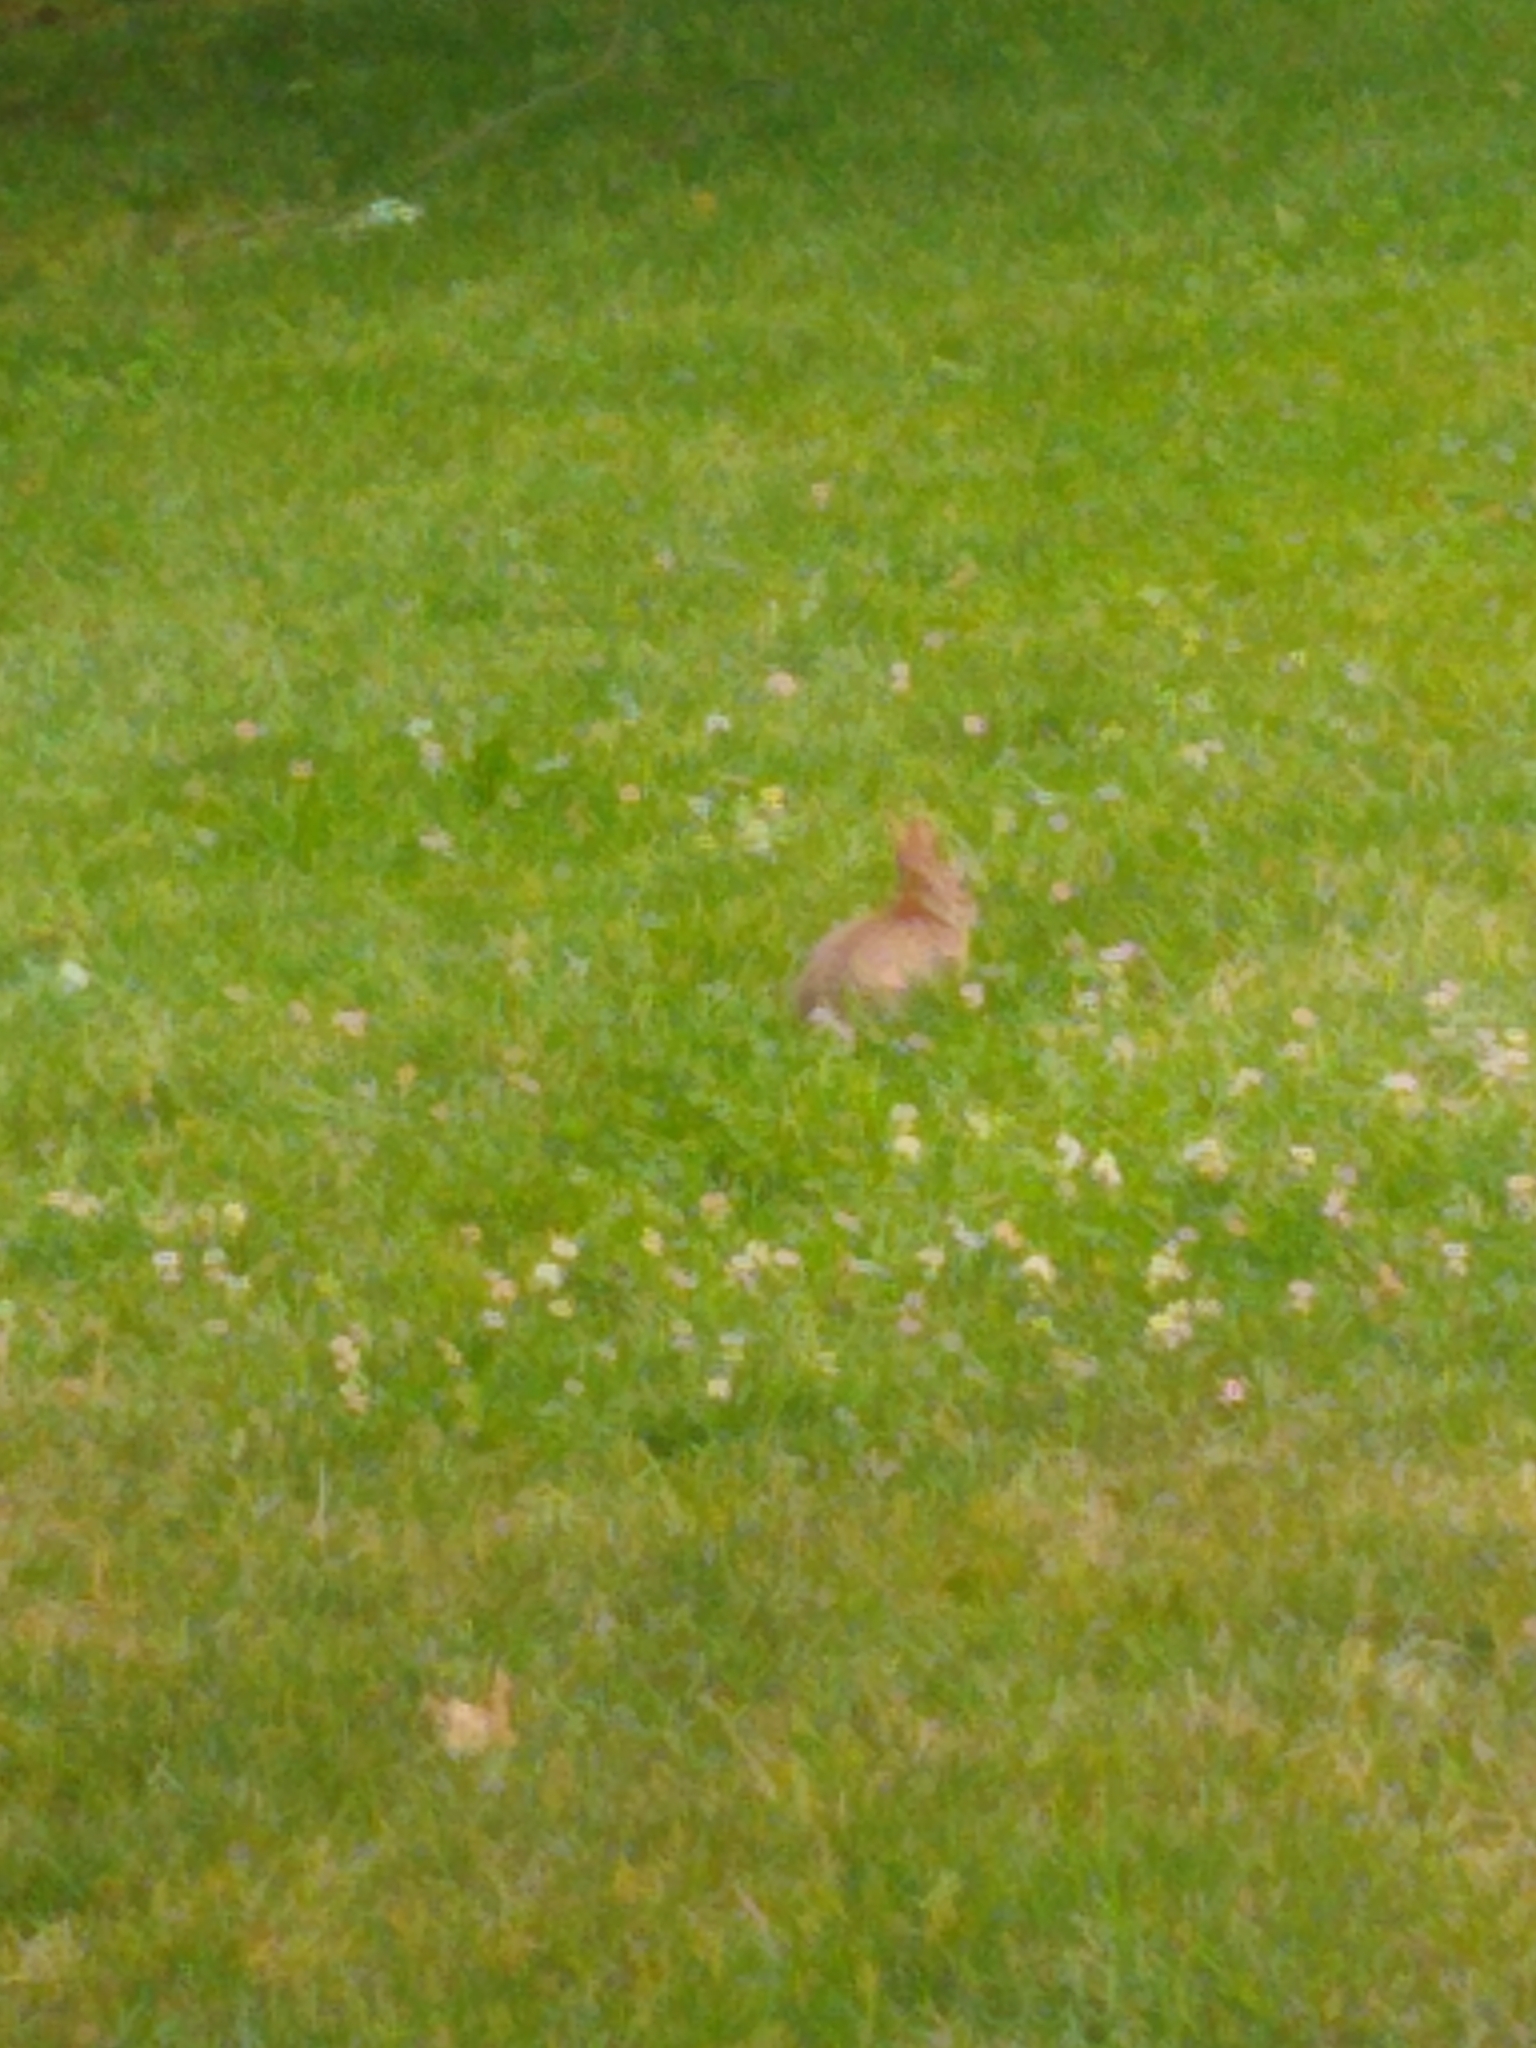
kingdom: Animalia
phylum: Chordata
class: Mammalia
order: Lagomorpha
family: Leporidae
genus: Sylvilagus
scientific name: Sylvilagus floridanus
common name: Eastern cottontail
